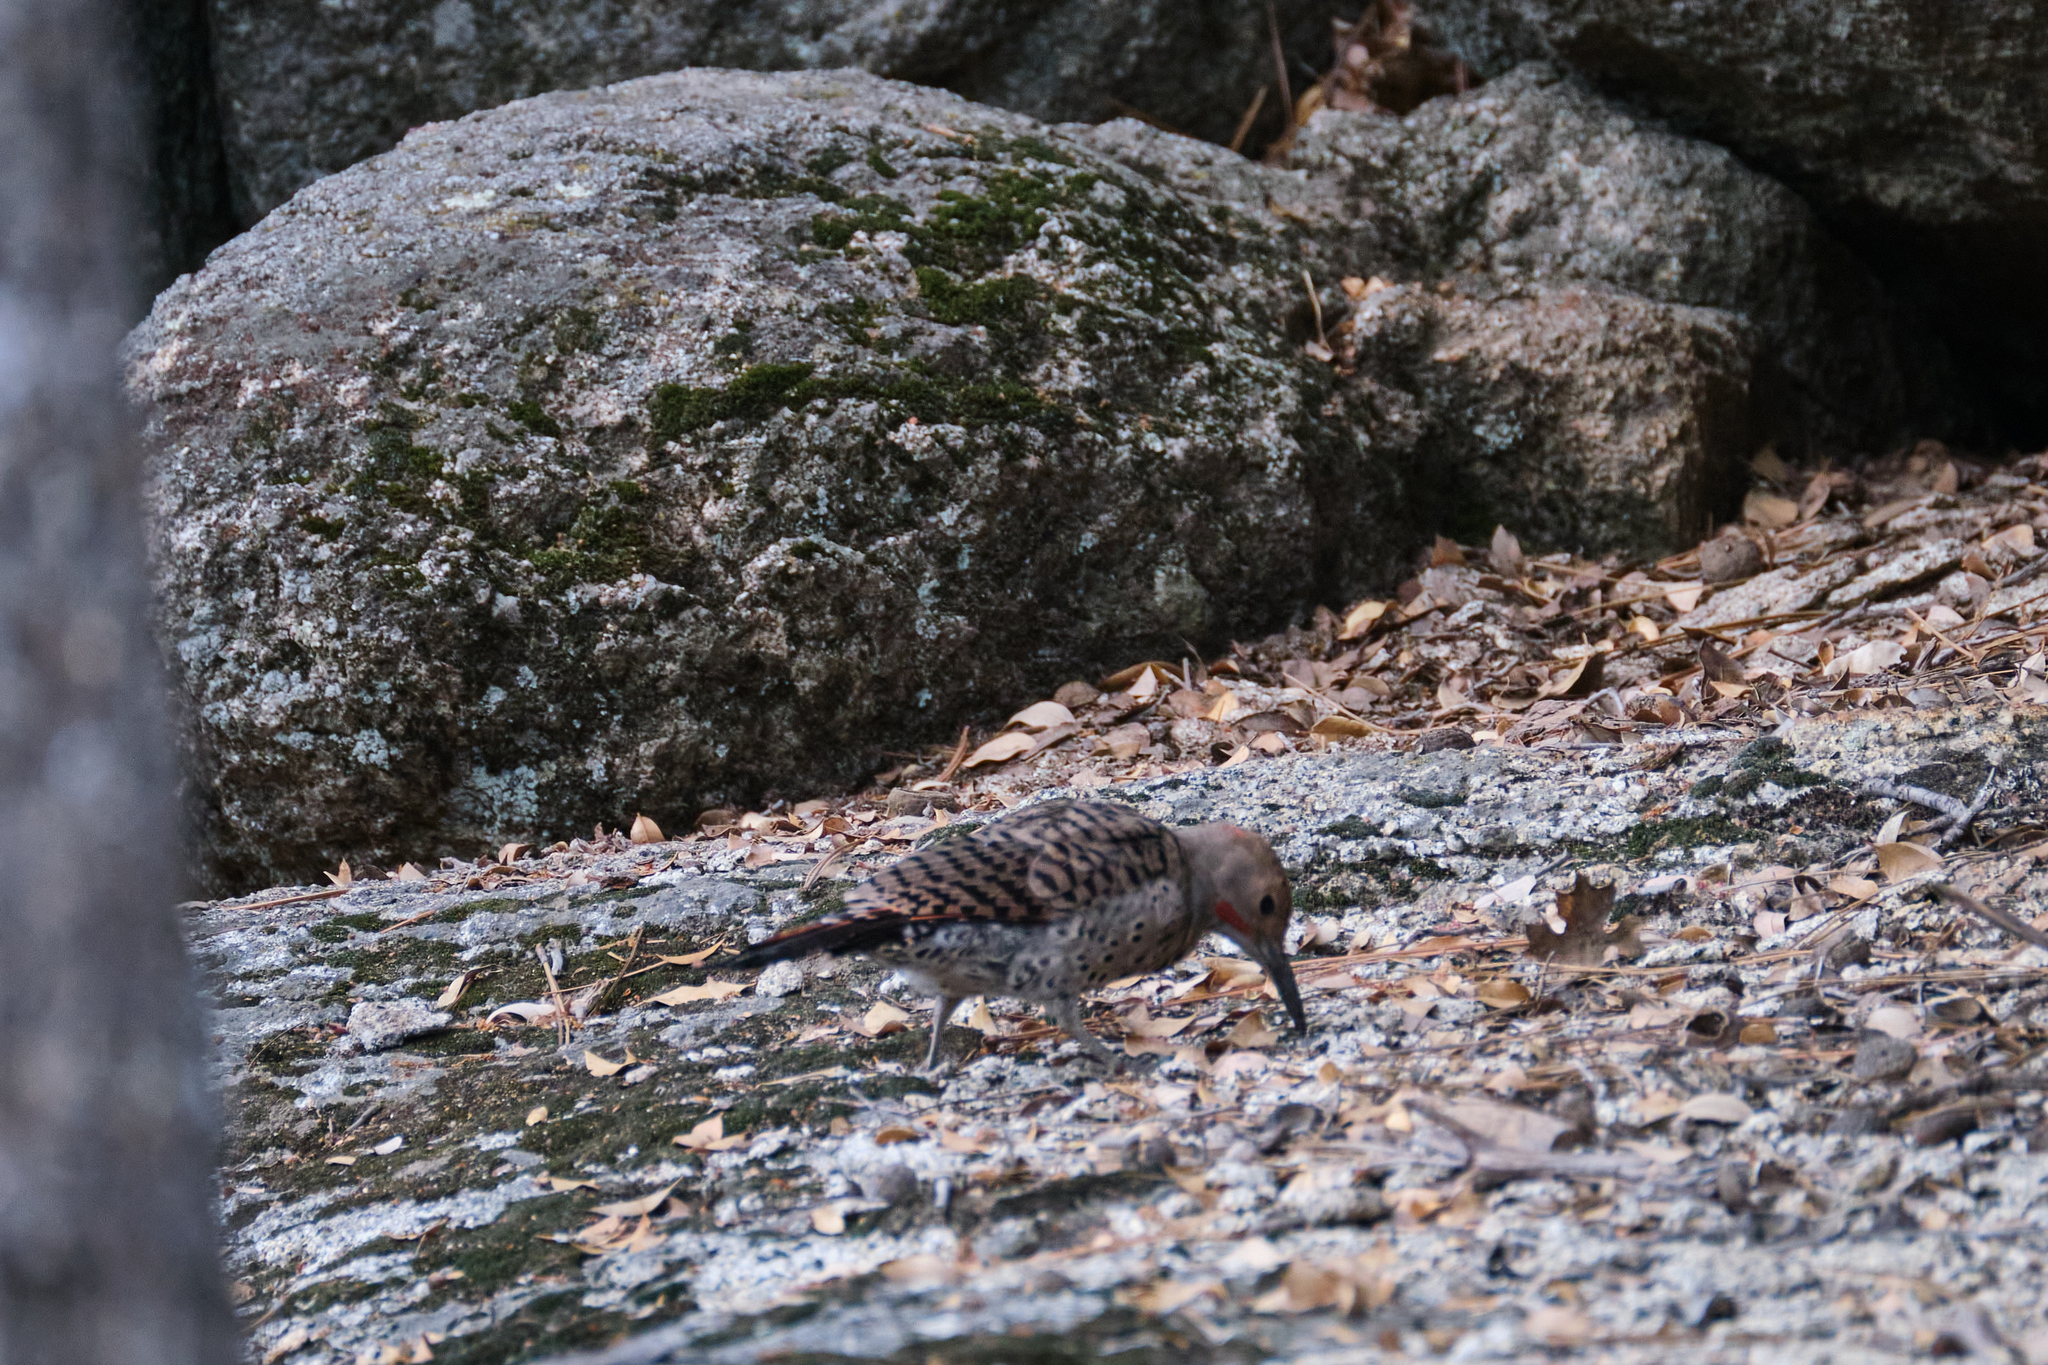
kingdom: Animalia
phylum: Chordata
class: Aves
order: Piciformes
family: Picidae
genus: Colaptes
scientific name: Colaptes auratus
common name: Northern flicker
